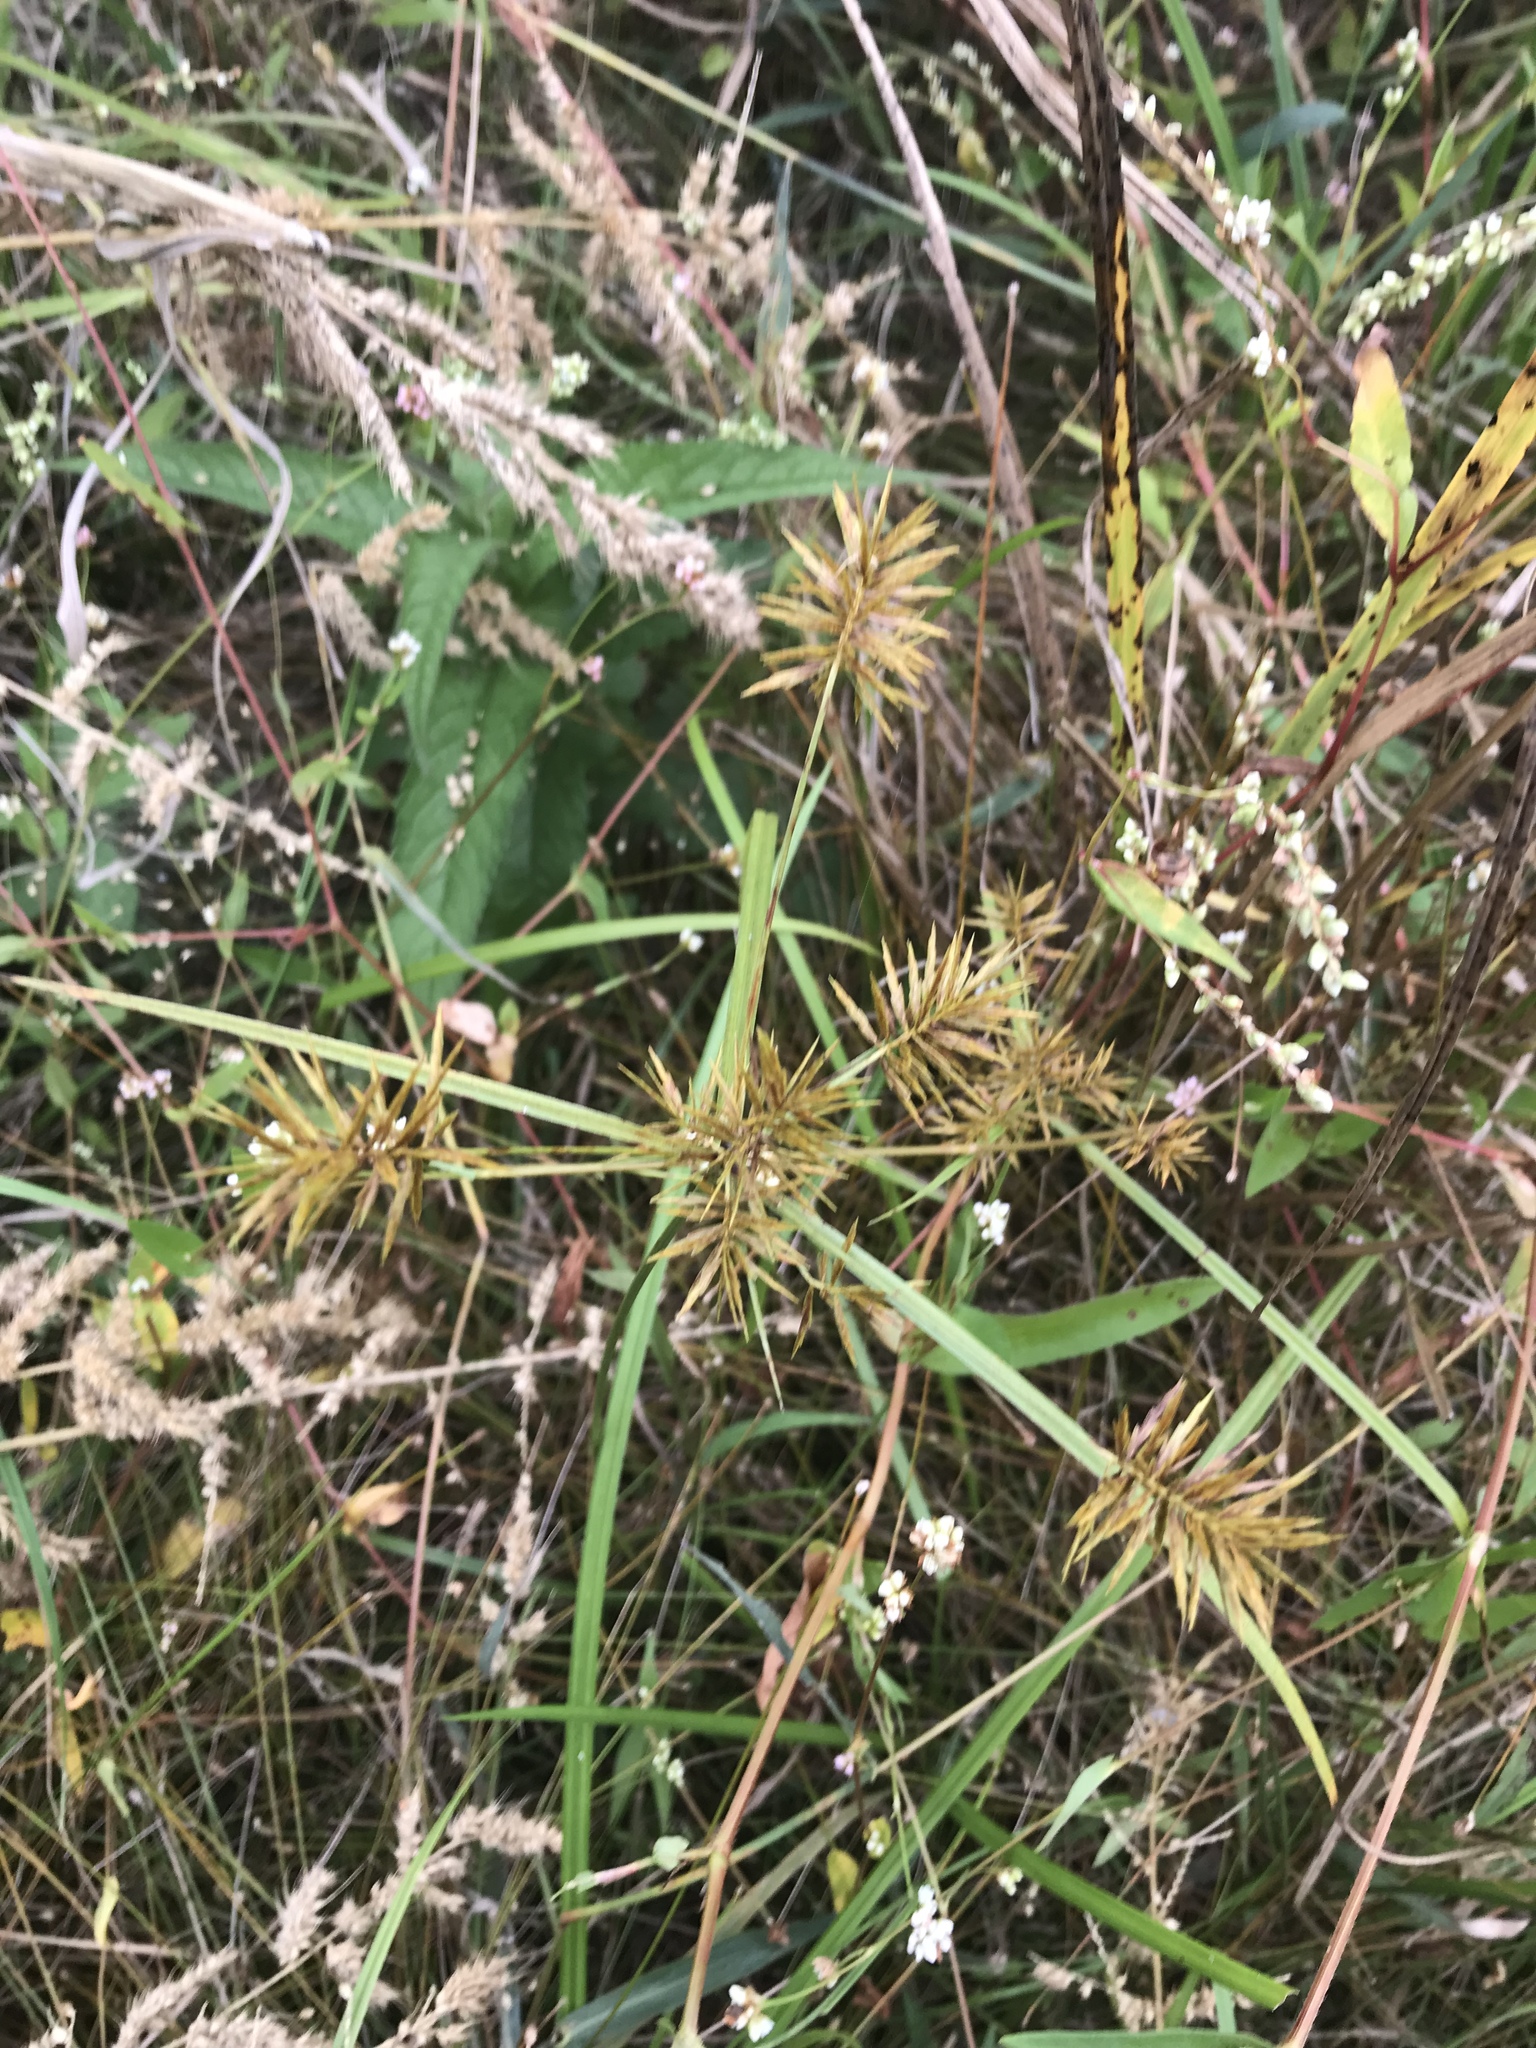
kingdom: Plantae
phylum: Tracheophyta
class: Liliopsida
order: Poales
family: Cyperaceae
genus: Cyperus
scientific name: Cyperus strigosus
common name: False nutsedge
